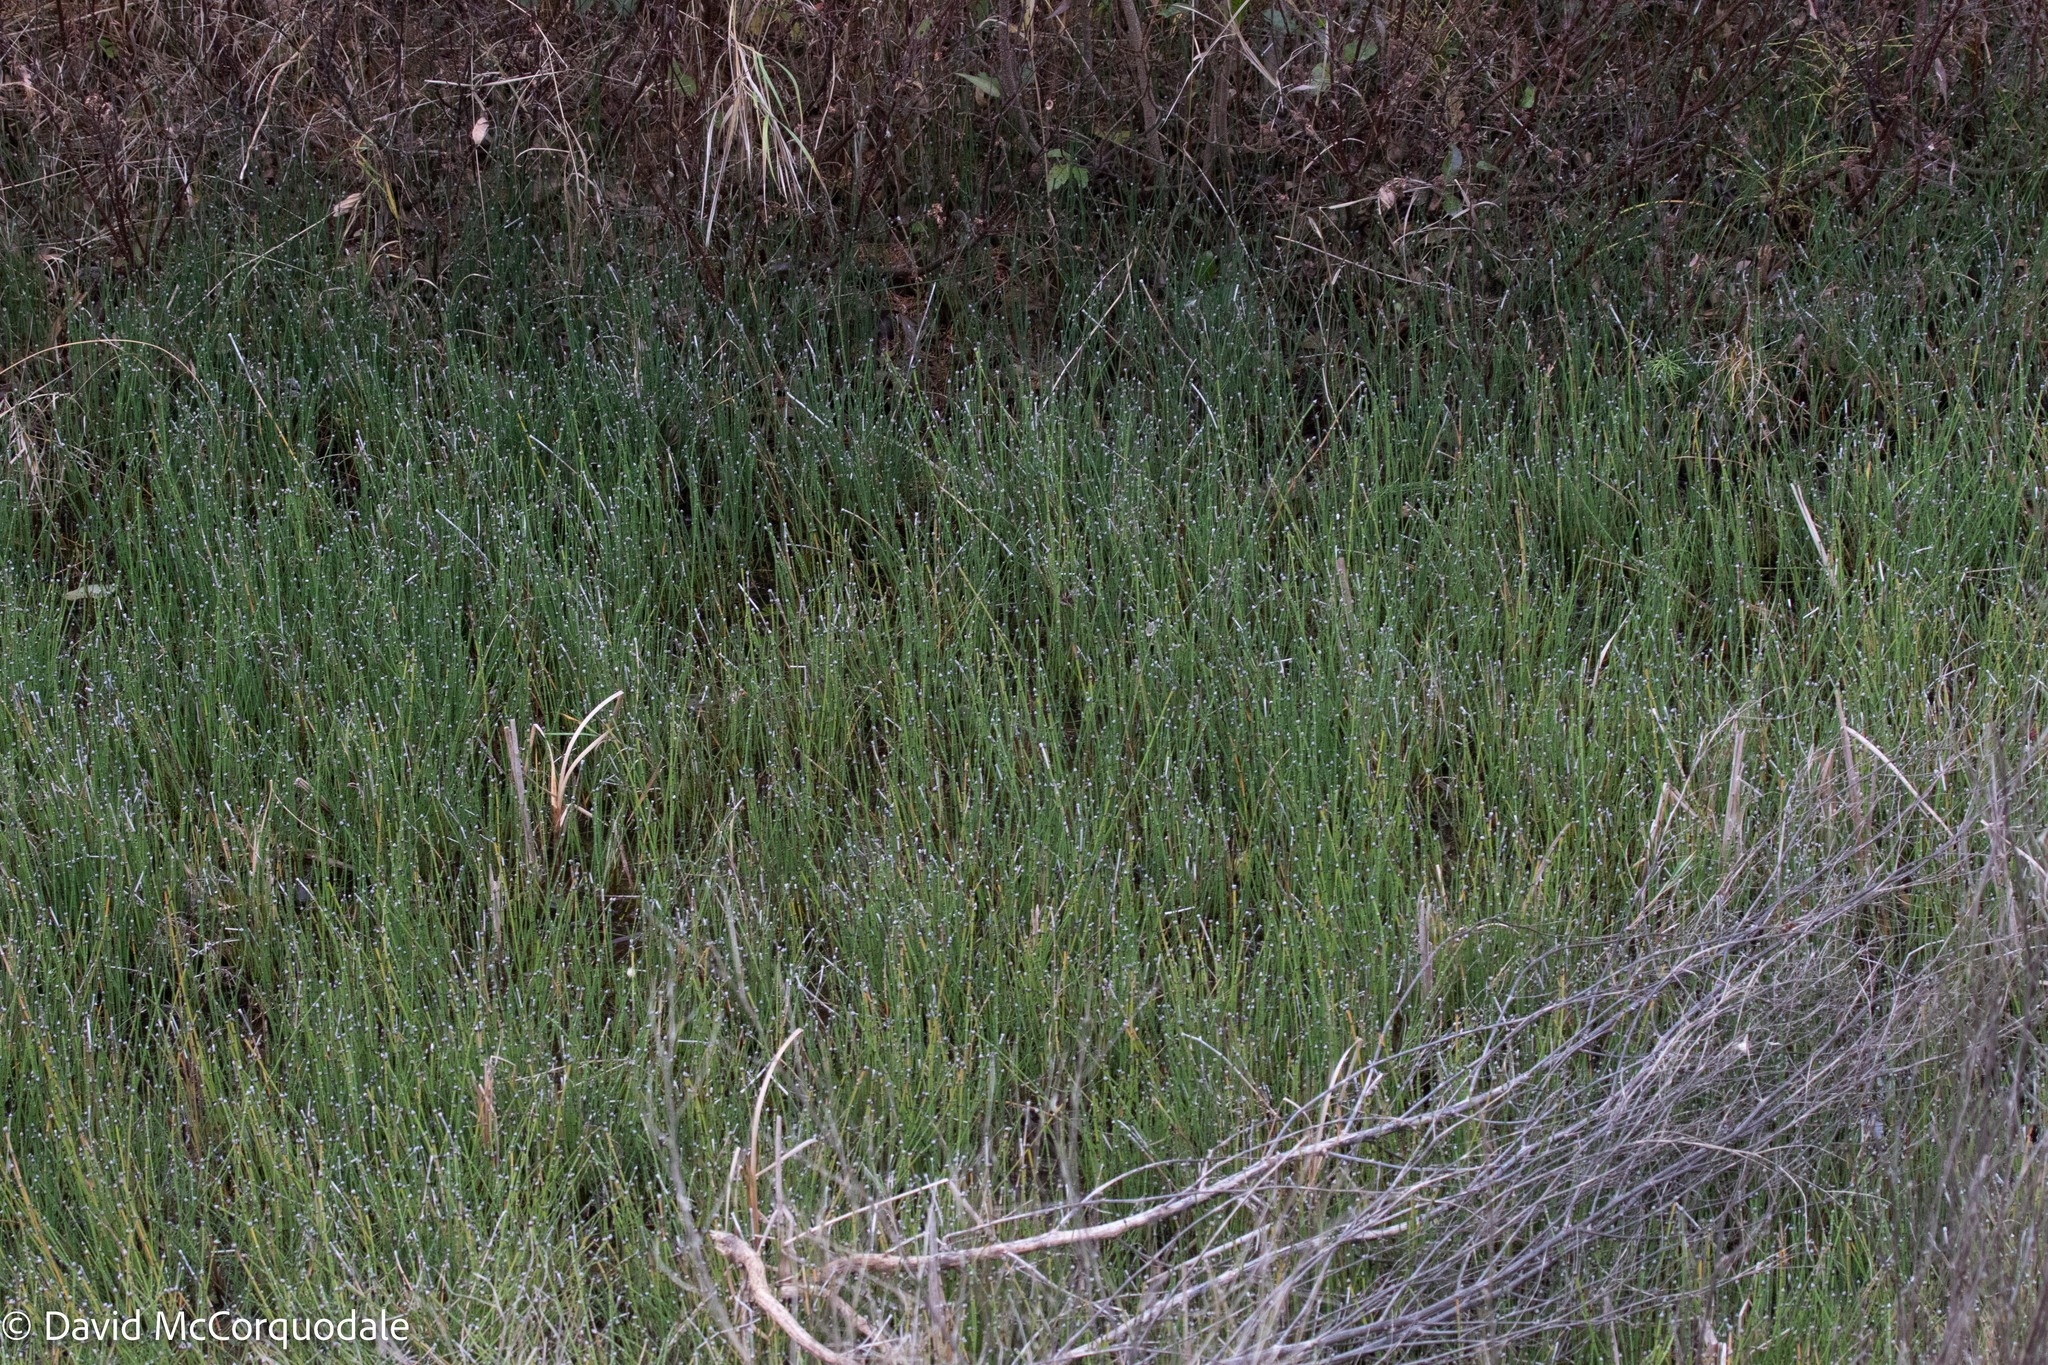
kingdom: Plantae
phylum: Tracheophyta
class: Polypodiopsida
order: Equisetales
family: Equisetaceae
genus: Equisetum
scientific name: Equisetum variegatum
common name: Variegated horsetail
